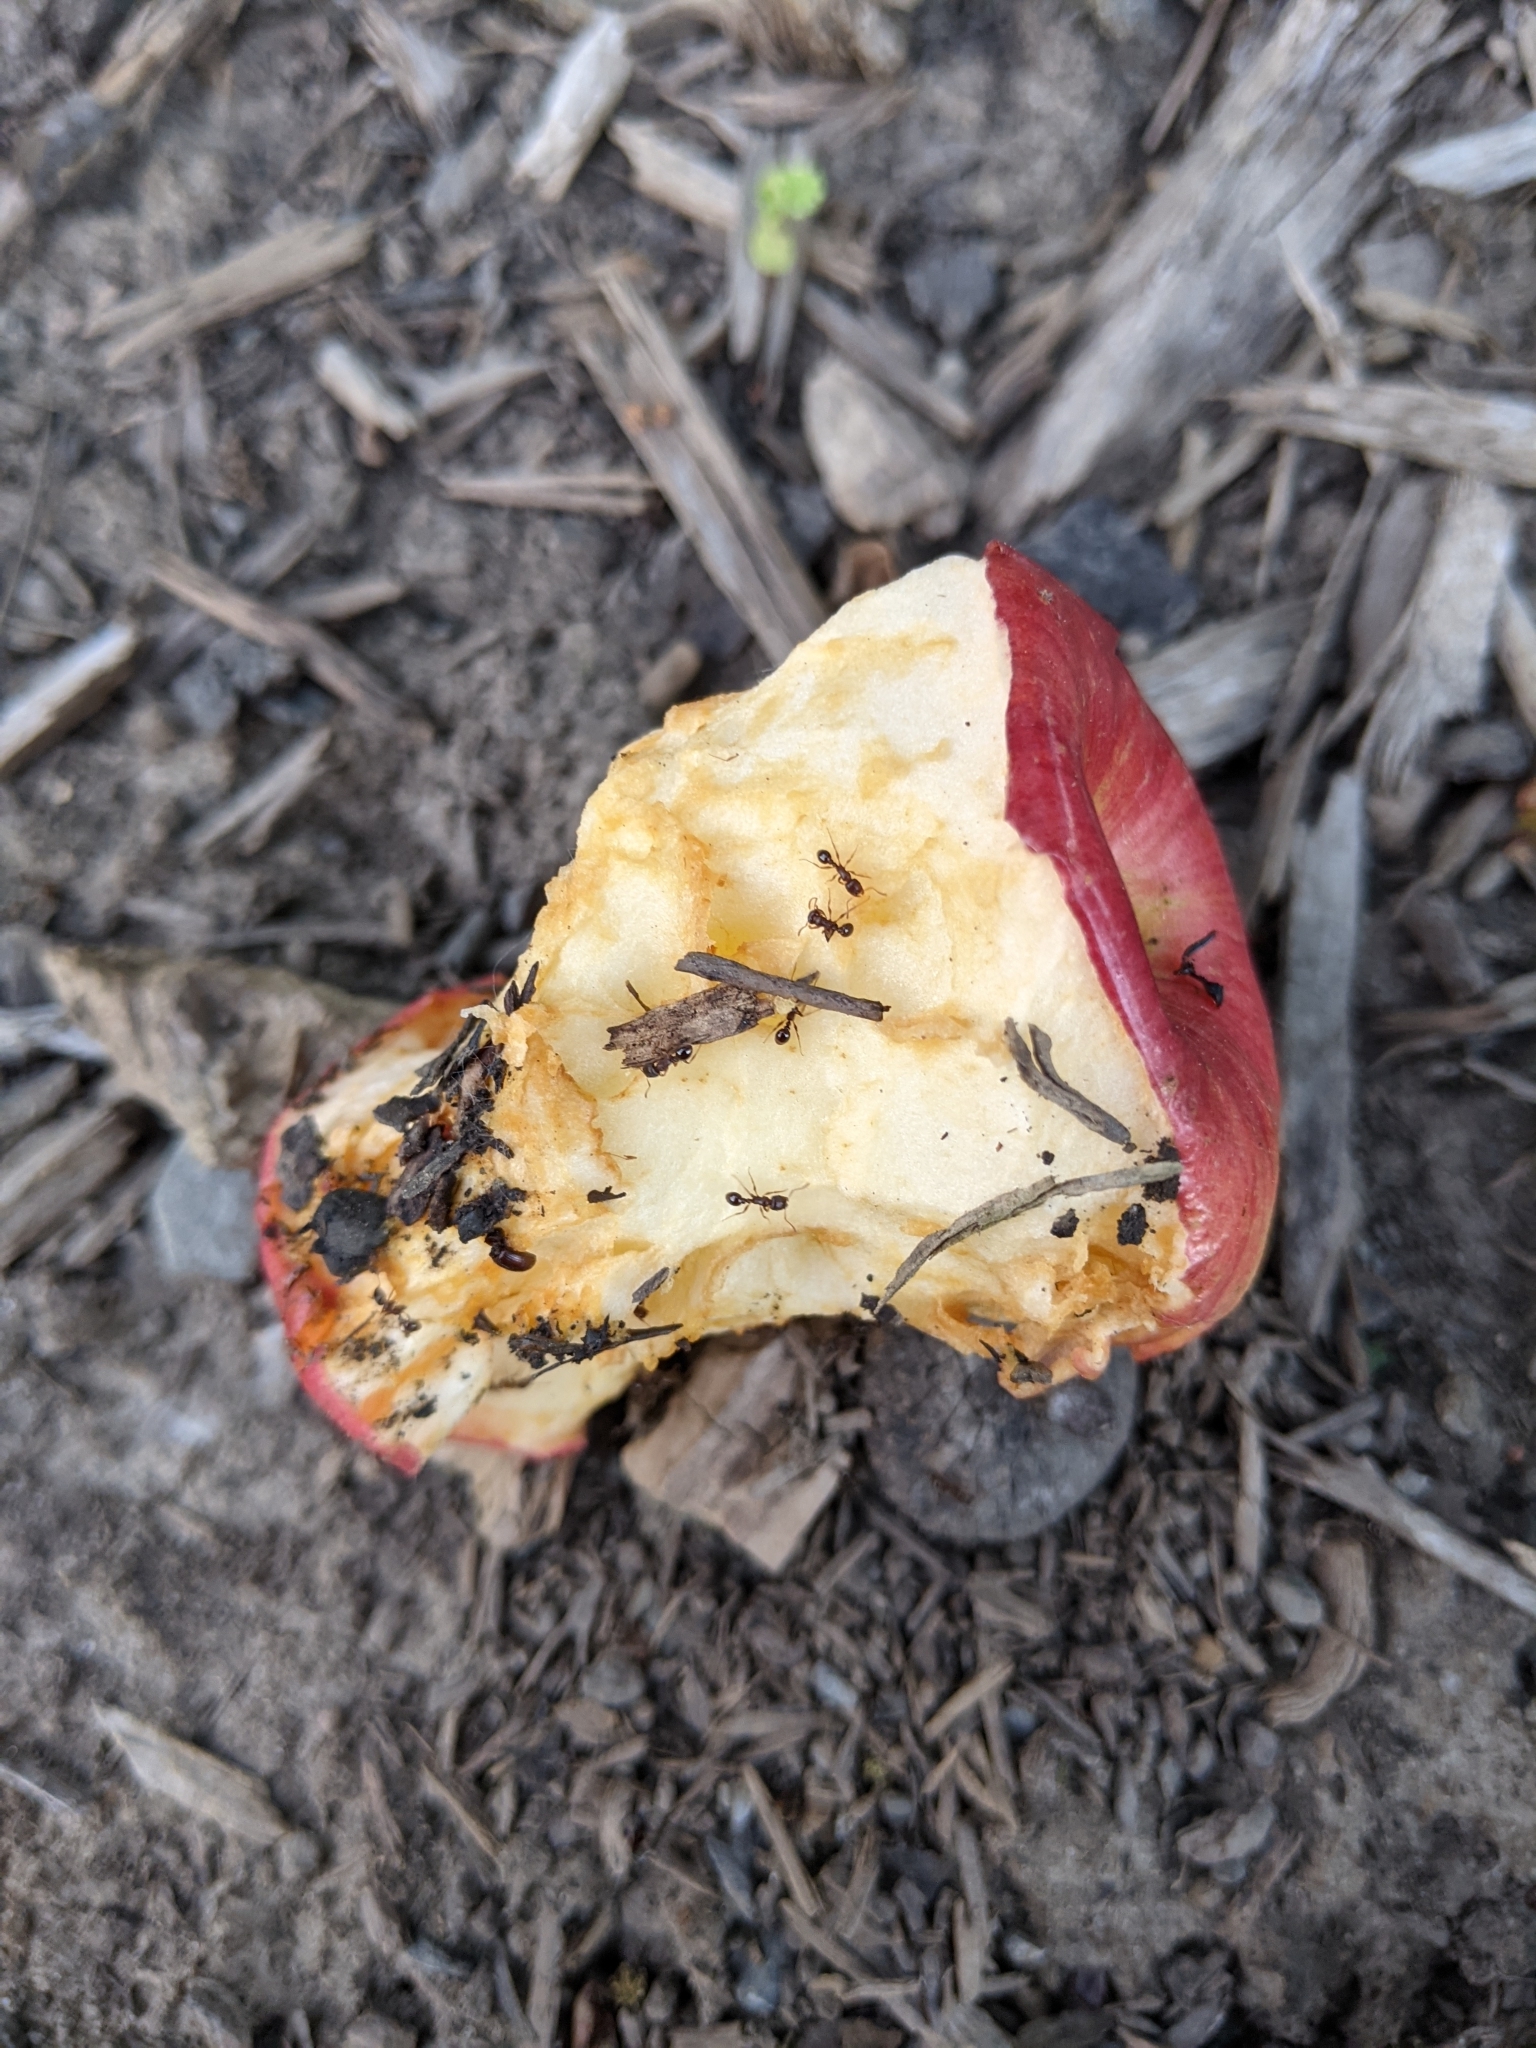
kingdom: Animalia
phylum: Arthropoda
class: Insecta
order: Hymenoptera
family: Formicidae
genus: Tetramorium
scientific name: Tetramorium immigrans
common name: Pavement ant
